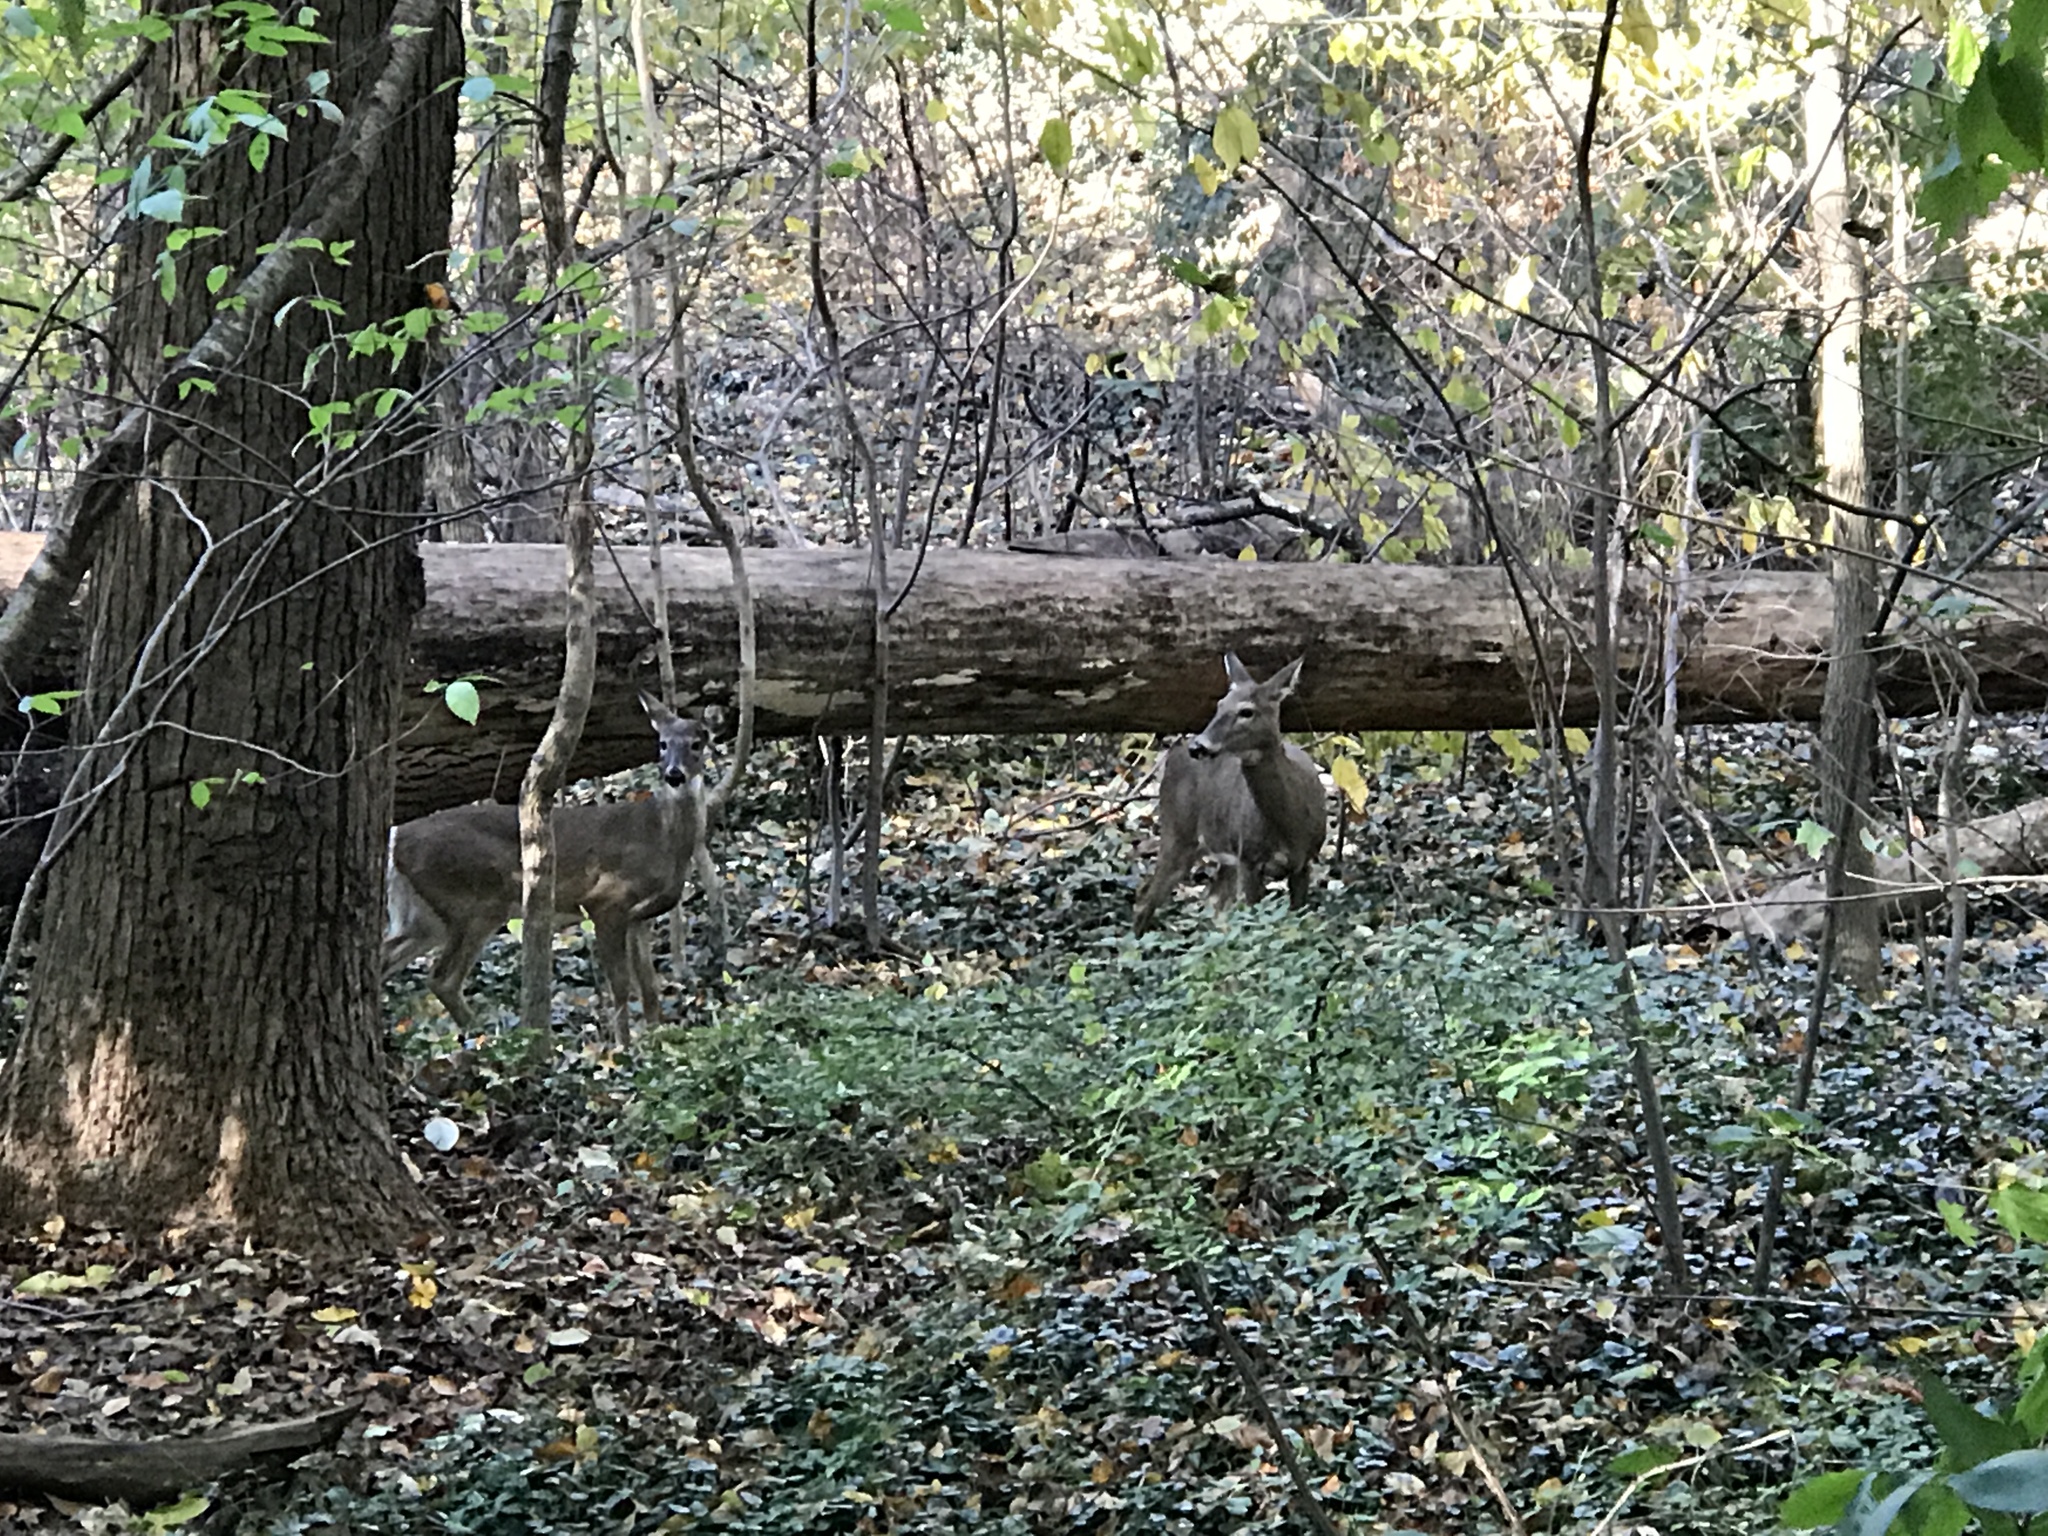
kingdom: Animalia
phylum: Chordata
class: Mammalia
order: Artiodactyla
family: Cervidae
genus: Odocoileus
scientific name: Odocoileus virginianus
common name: White-tailed deer
